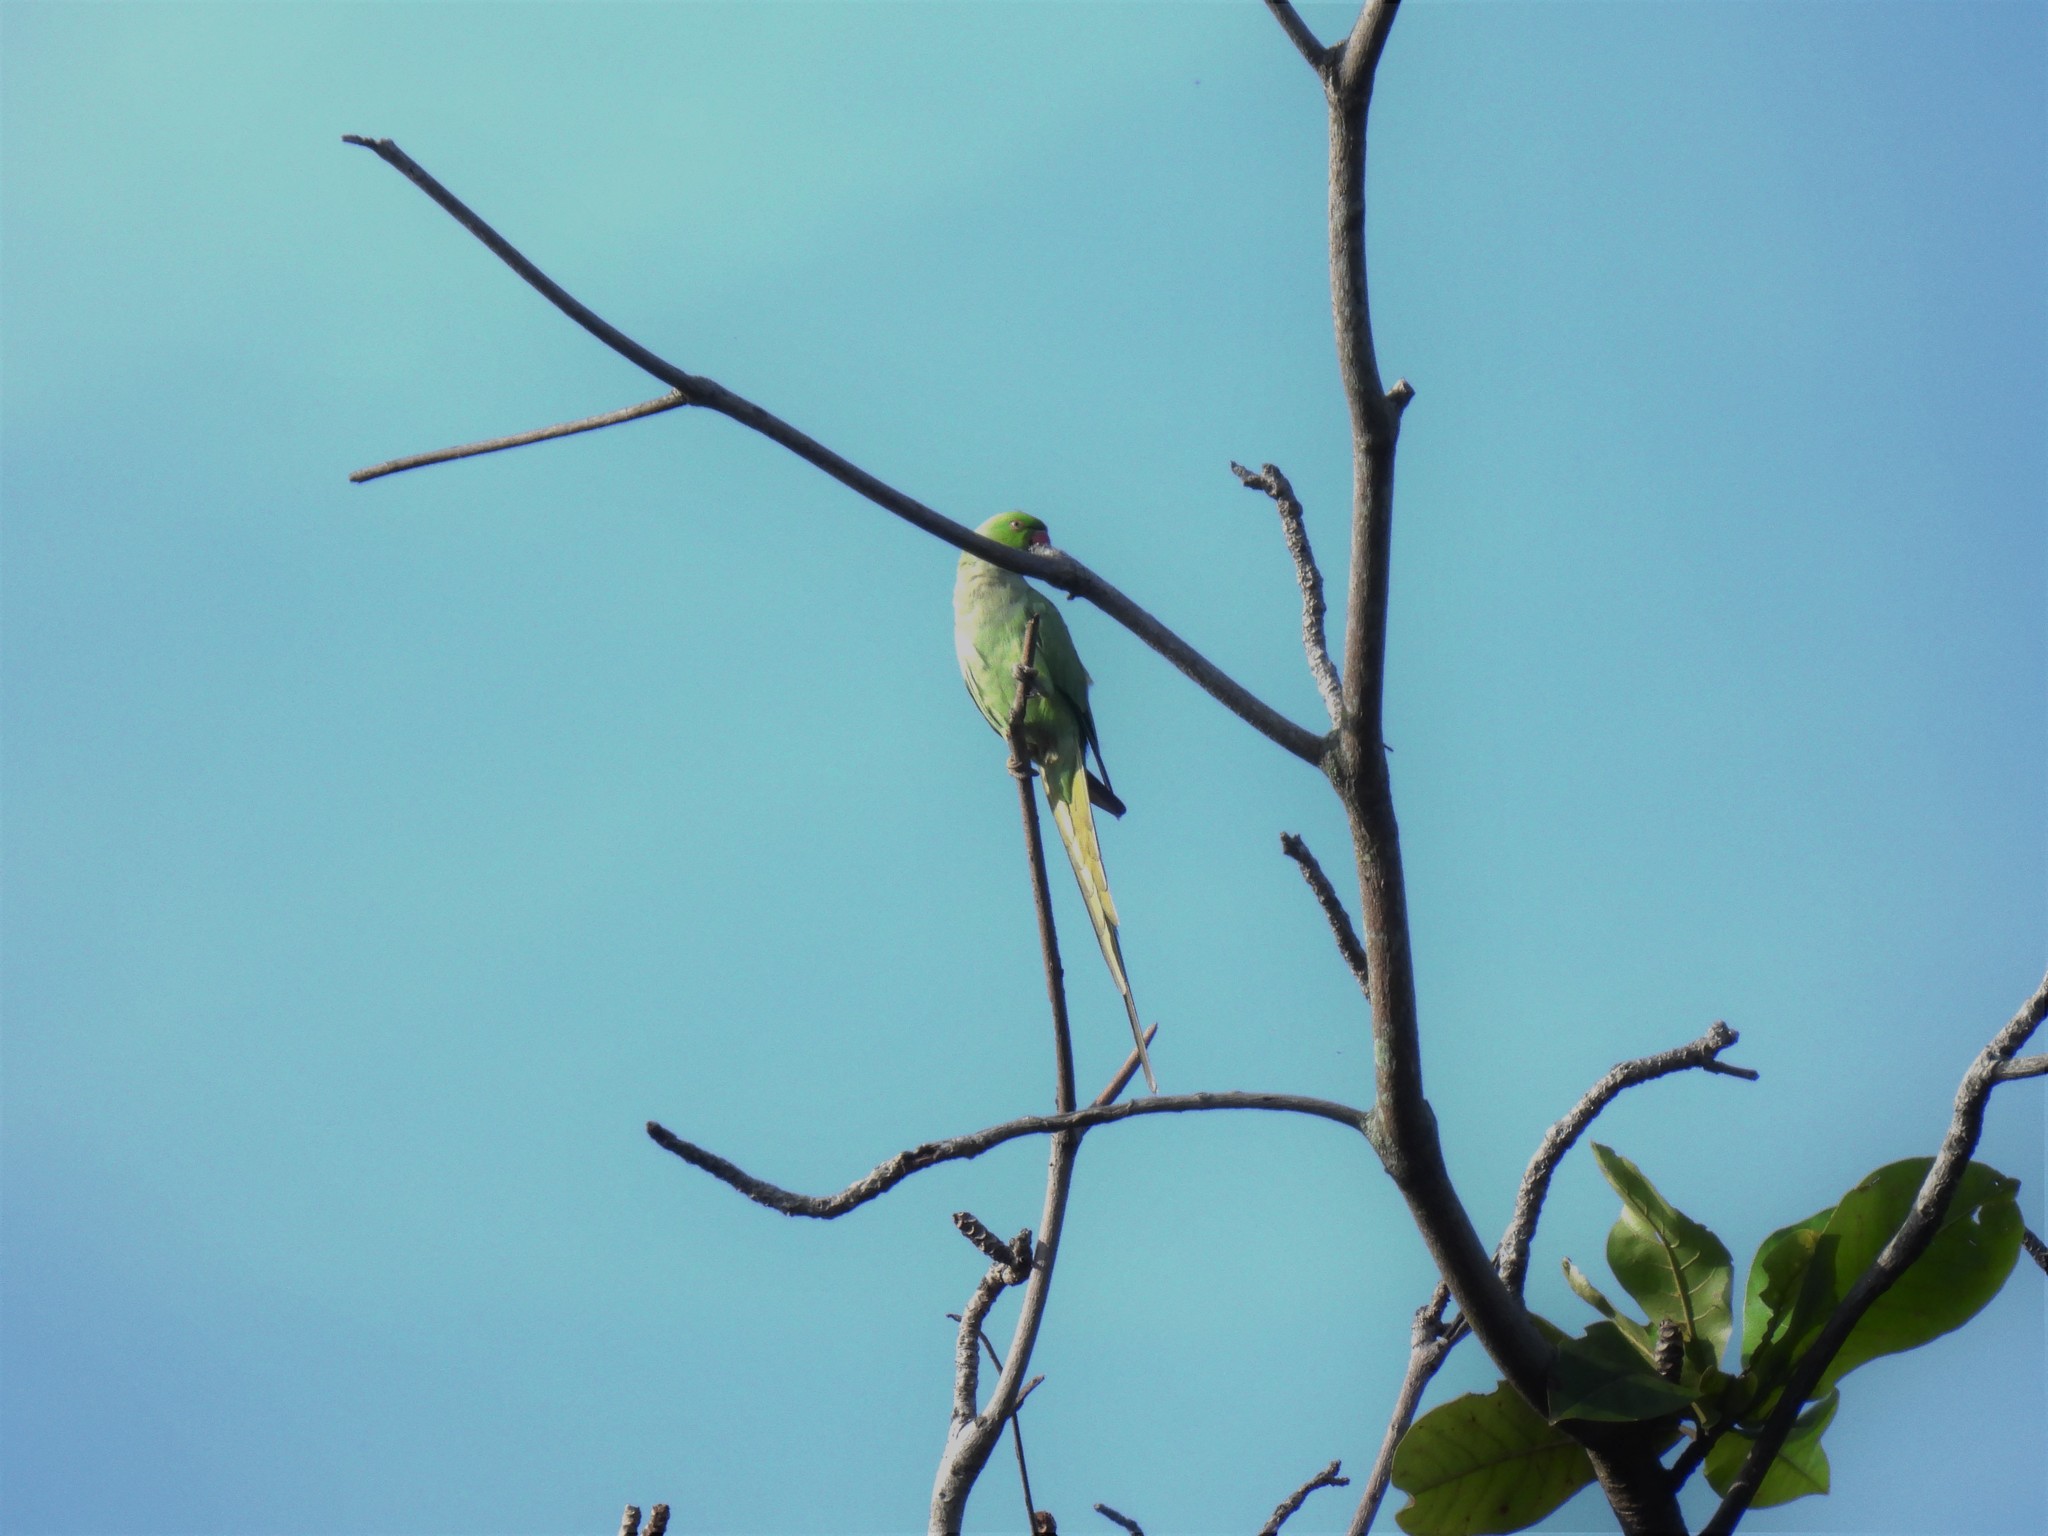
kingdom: Animalia
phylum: Chordata
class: Aves
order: Psittaciformes
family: Psittacidae
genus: Psittacula
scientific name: Psittacula krameri
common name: Rose-ringed parakeet
